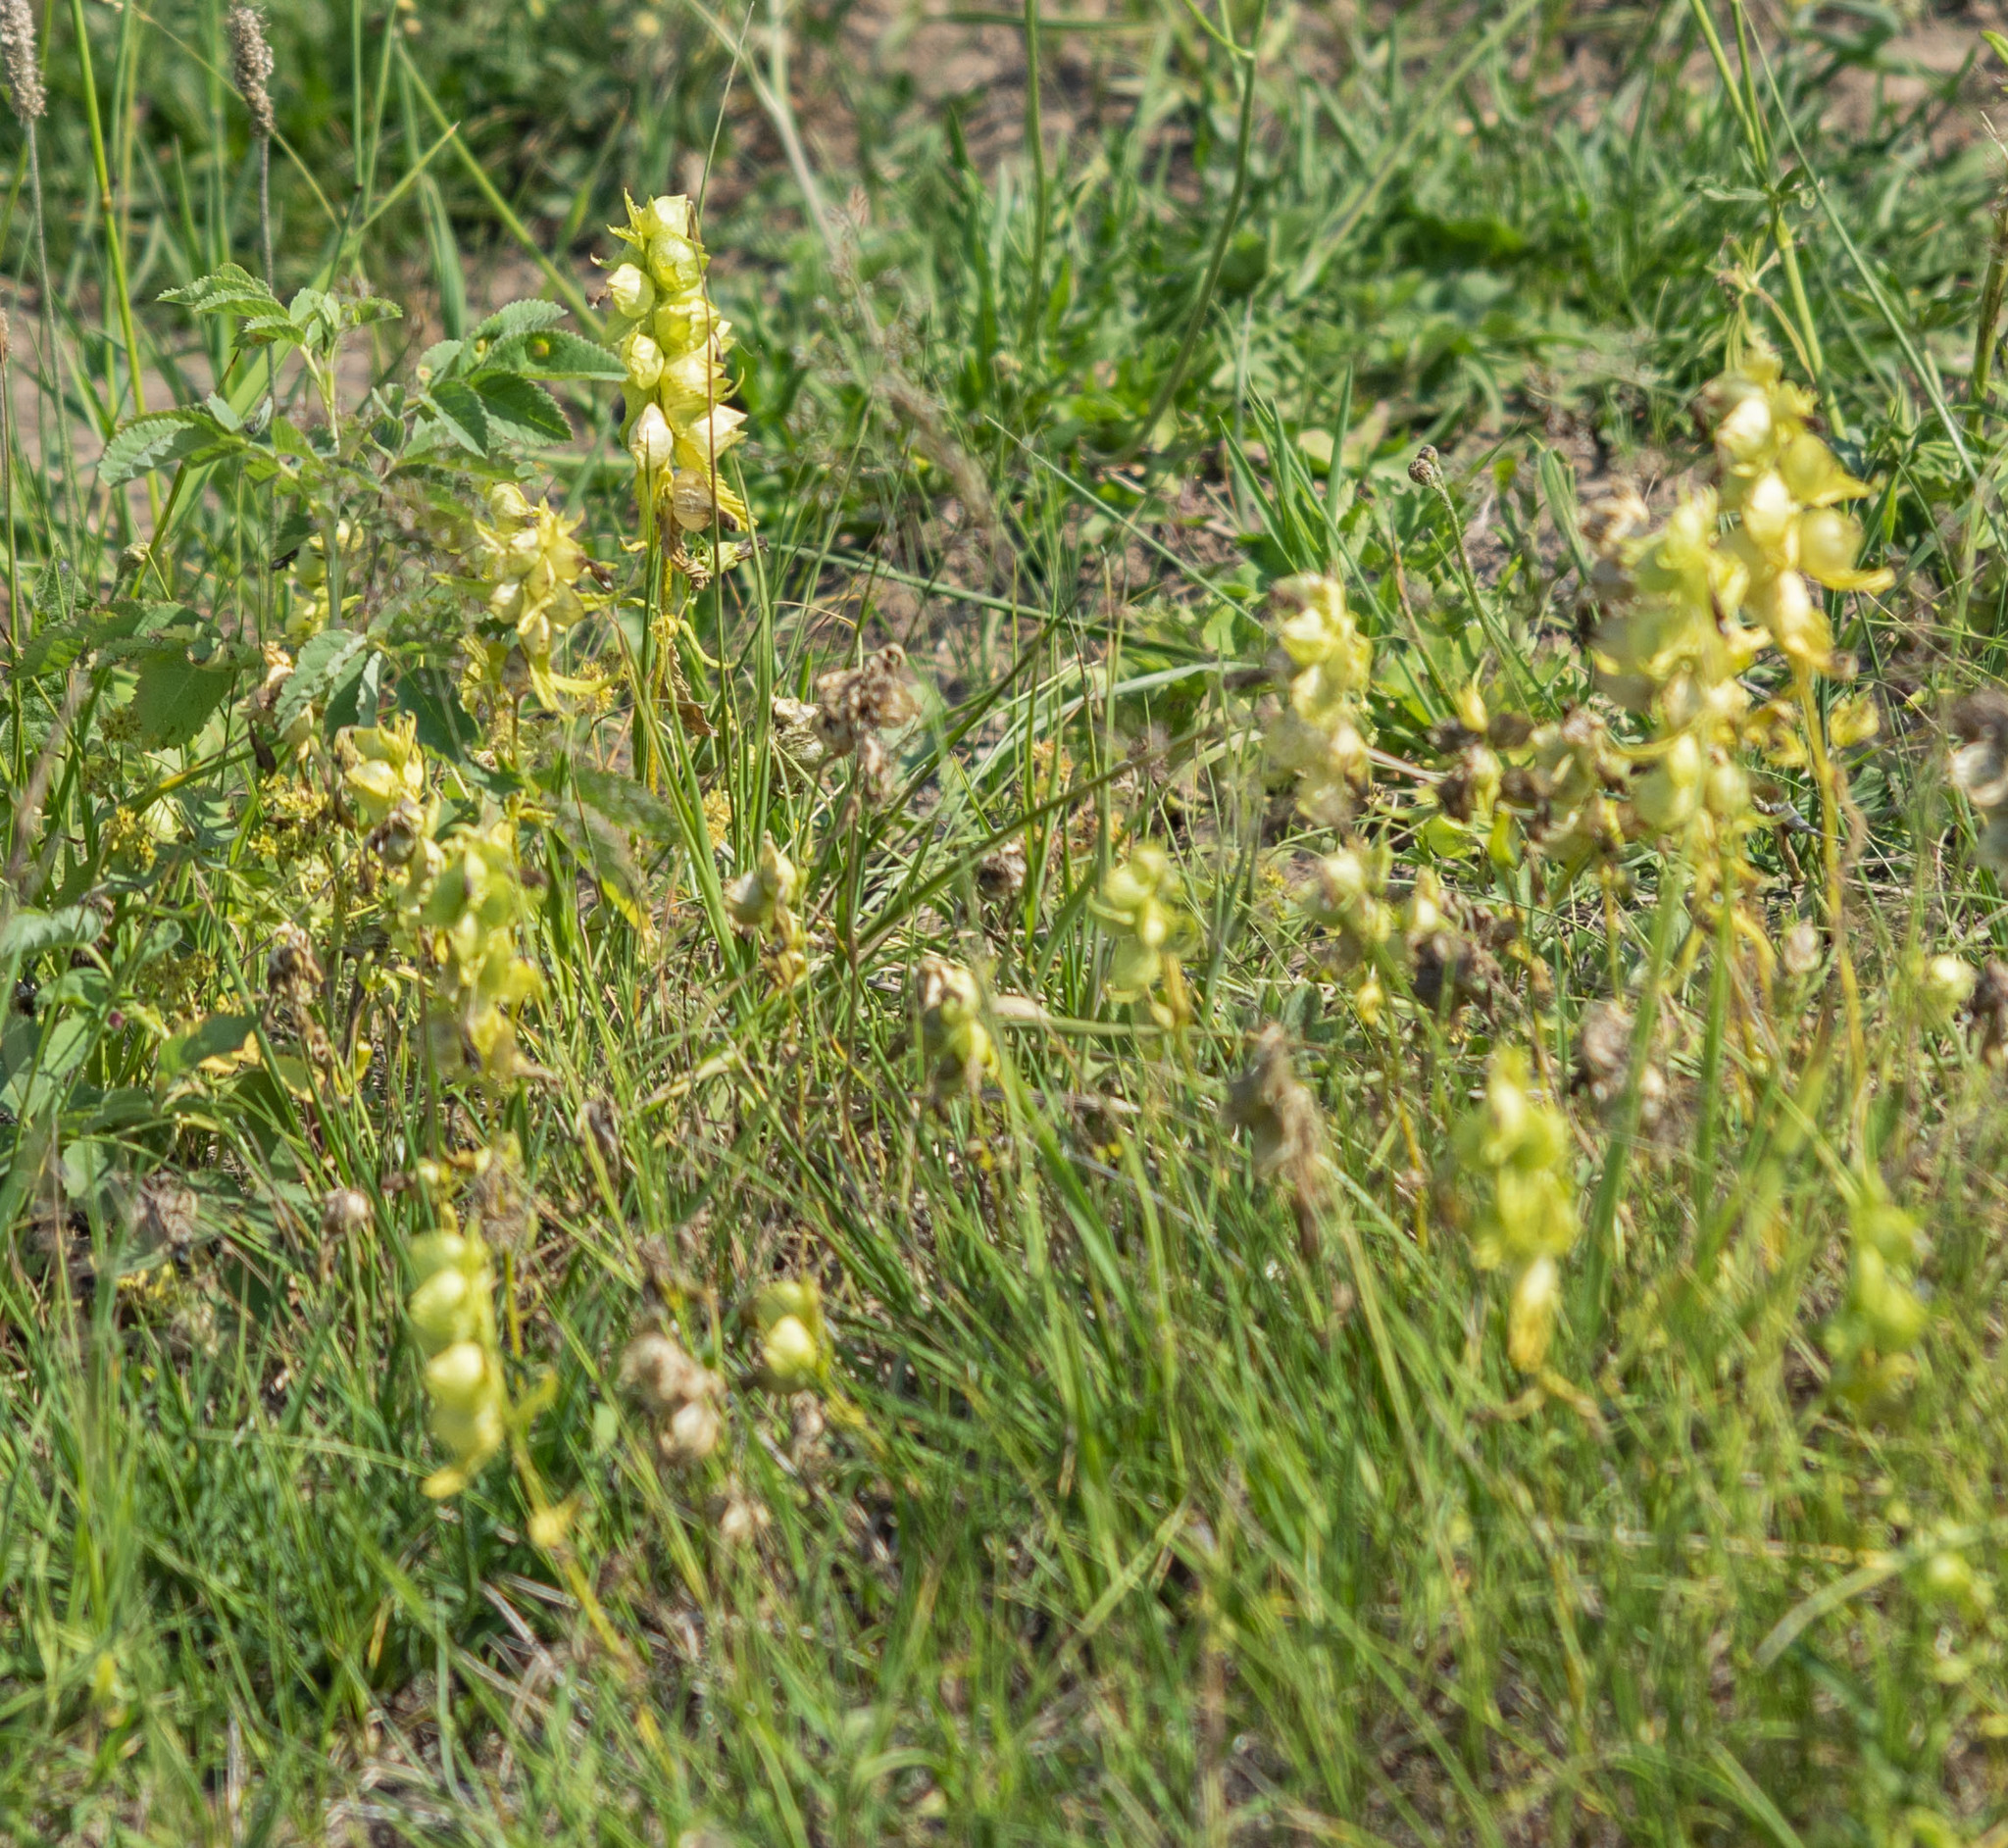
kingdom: Plantae
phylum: Tracheophyta
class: Magnoliopsida
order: Lamiales
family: Orobanchaceae
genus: Rhinanthus
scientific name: Rhinanthus serotinus
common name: Late-flowering yellow rattle
